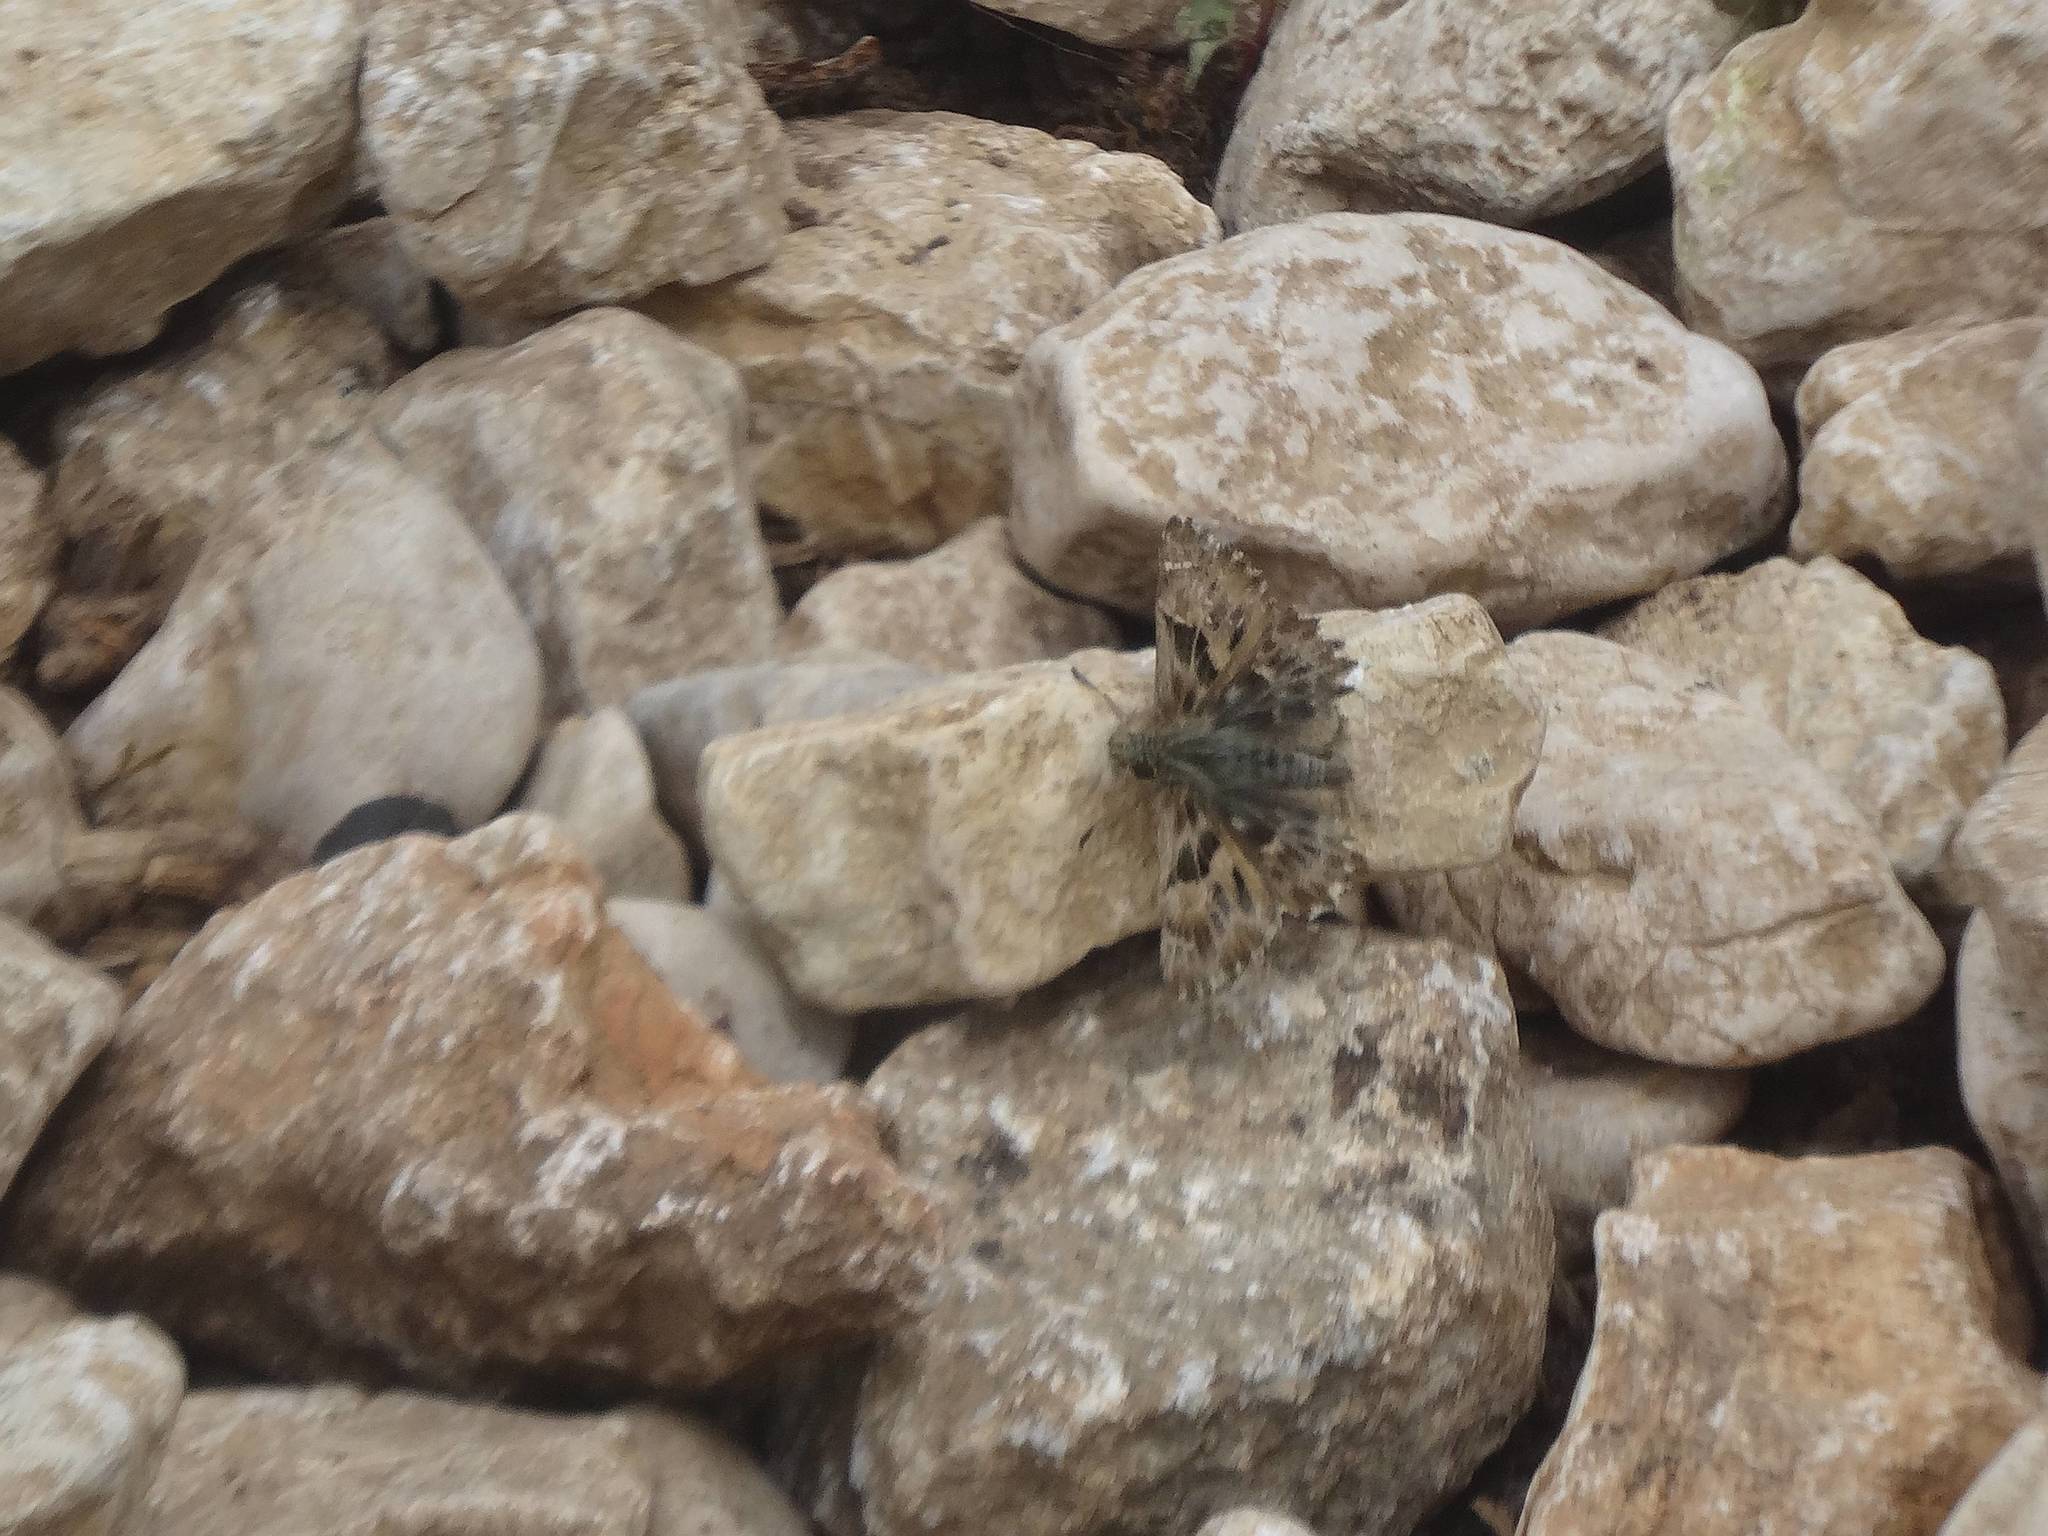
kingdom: Animalia
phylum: Arthropoda
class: Insecta
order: Lepidoptera
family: Hesperiidae
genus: Carcharodus
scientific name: Carcharodus alceae
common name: Mallow skipper
